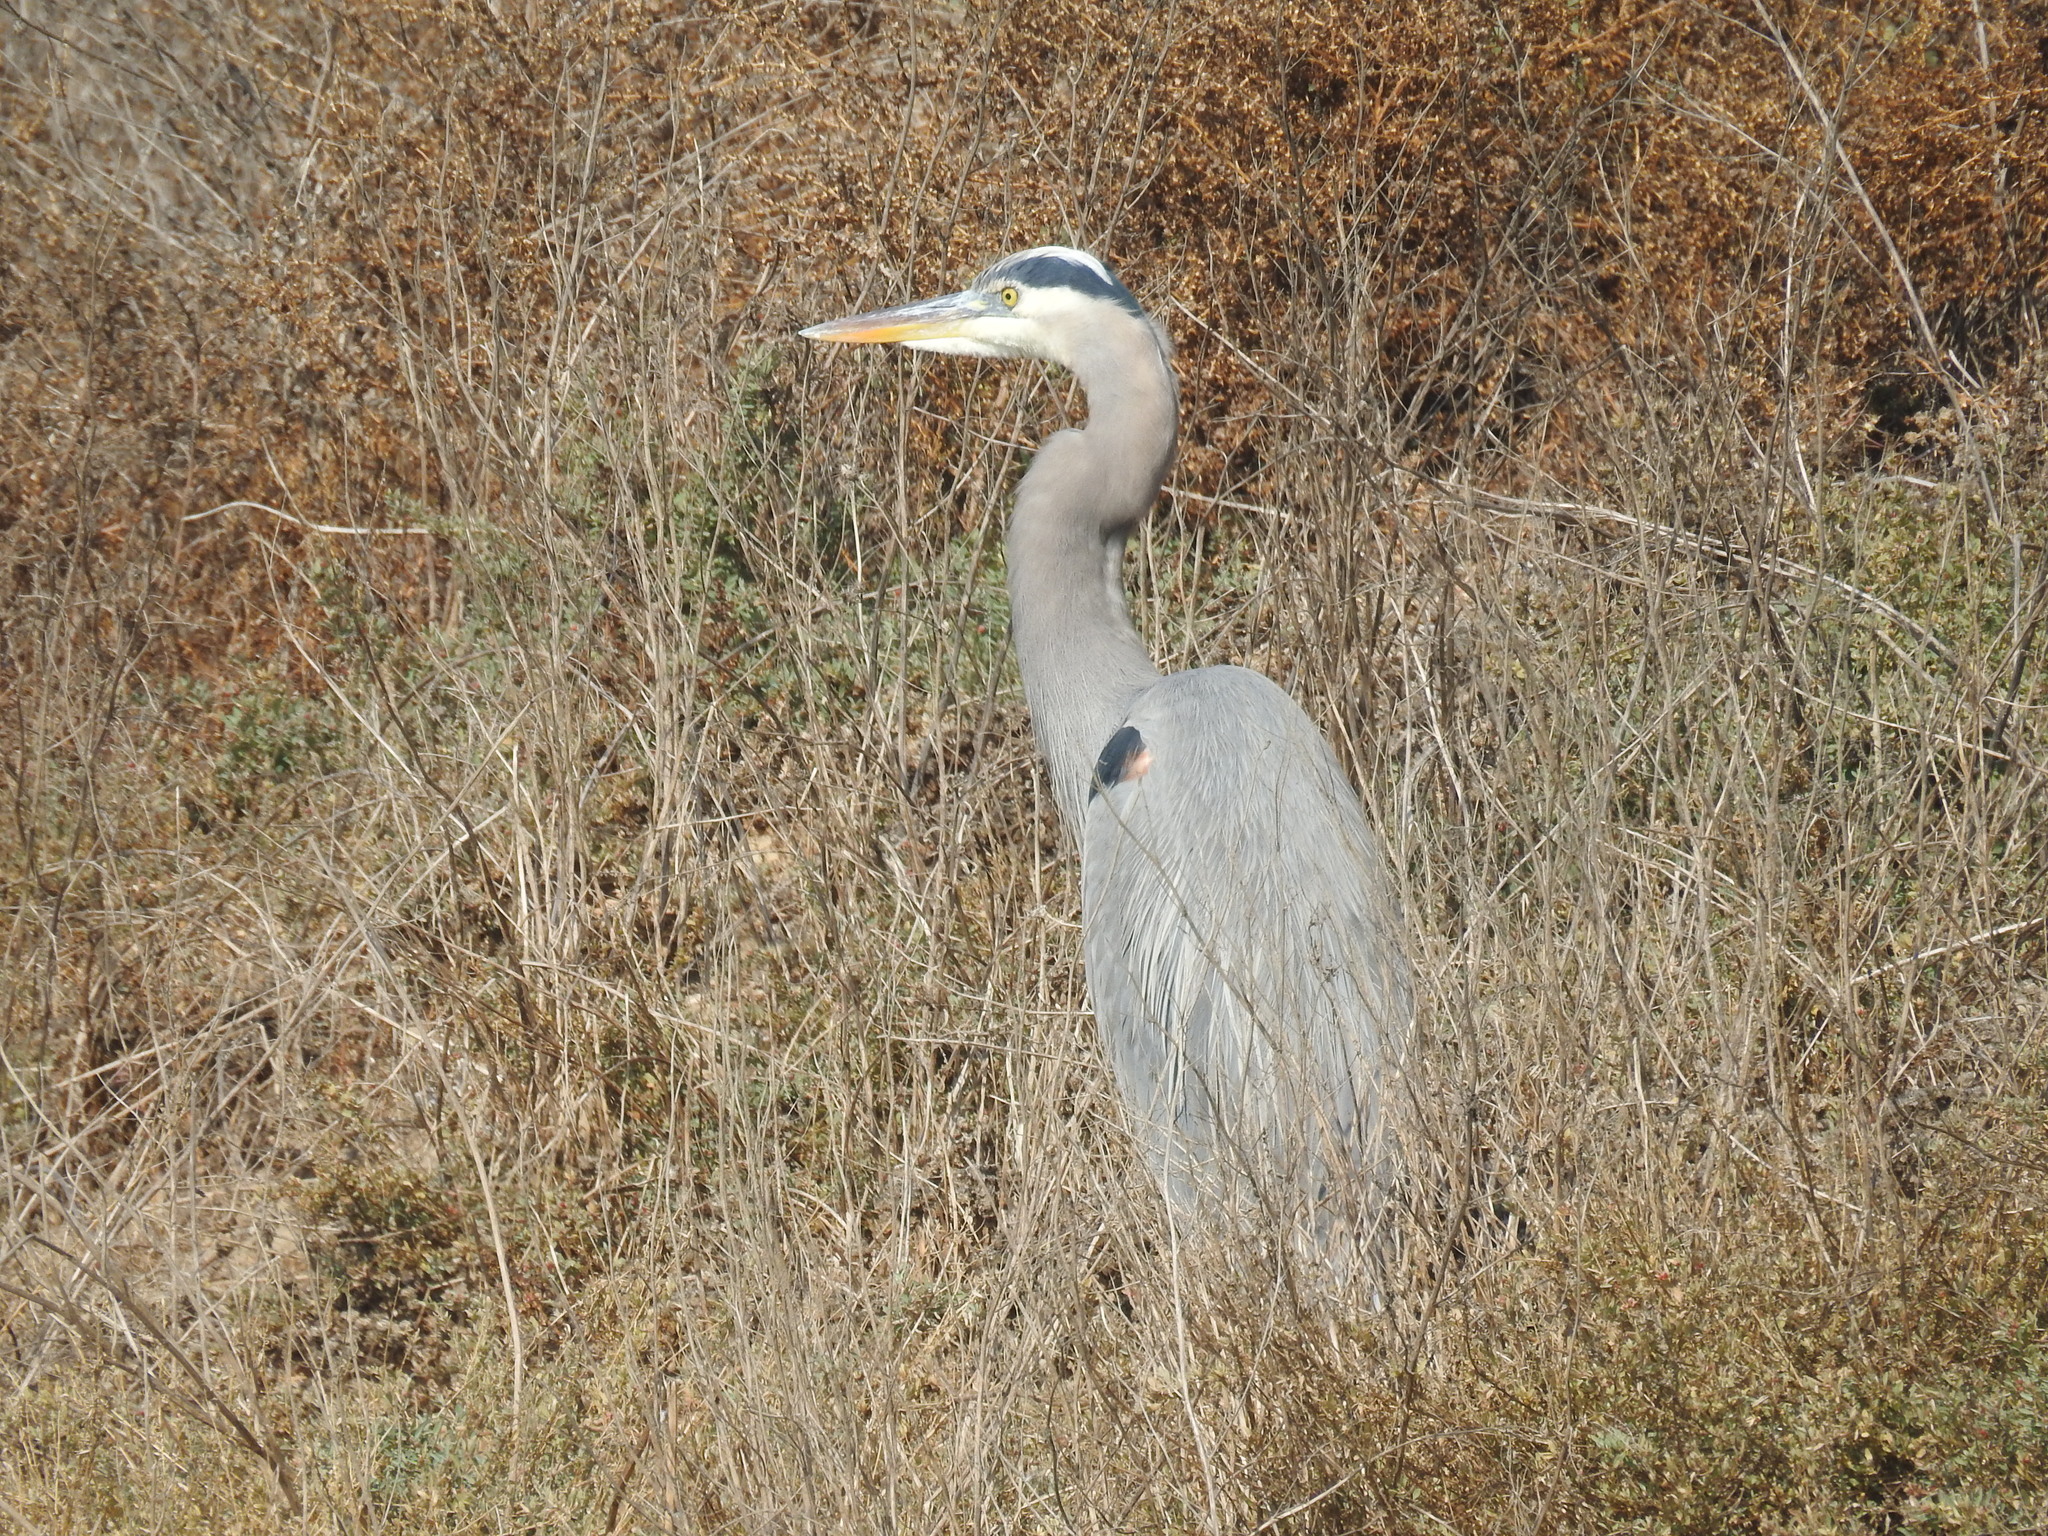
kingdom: Animalia
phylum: Chordata
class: Aves
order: Pelecaniformes
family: Ardeidae
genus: Ardea
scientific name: Ardea herodias
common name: Great blue heron
